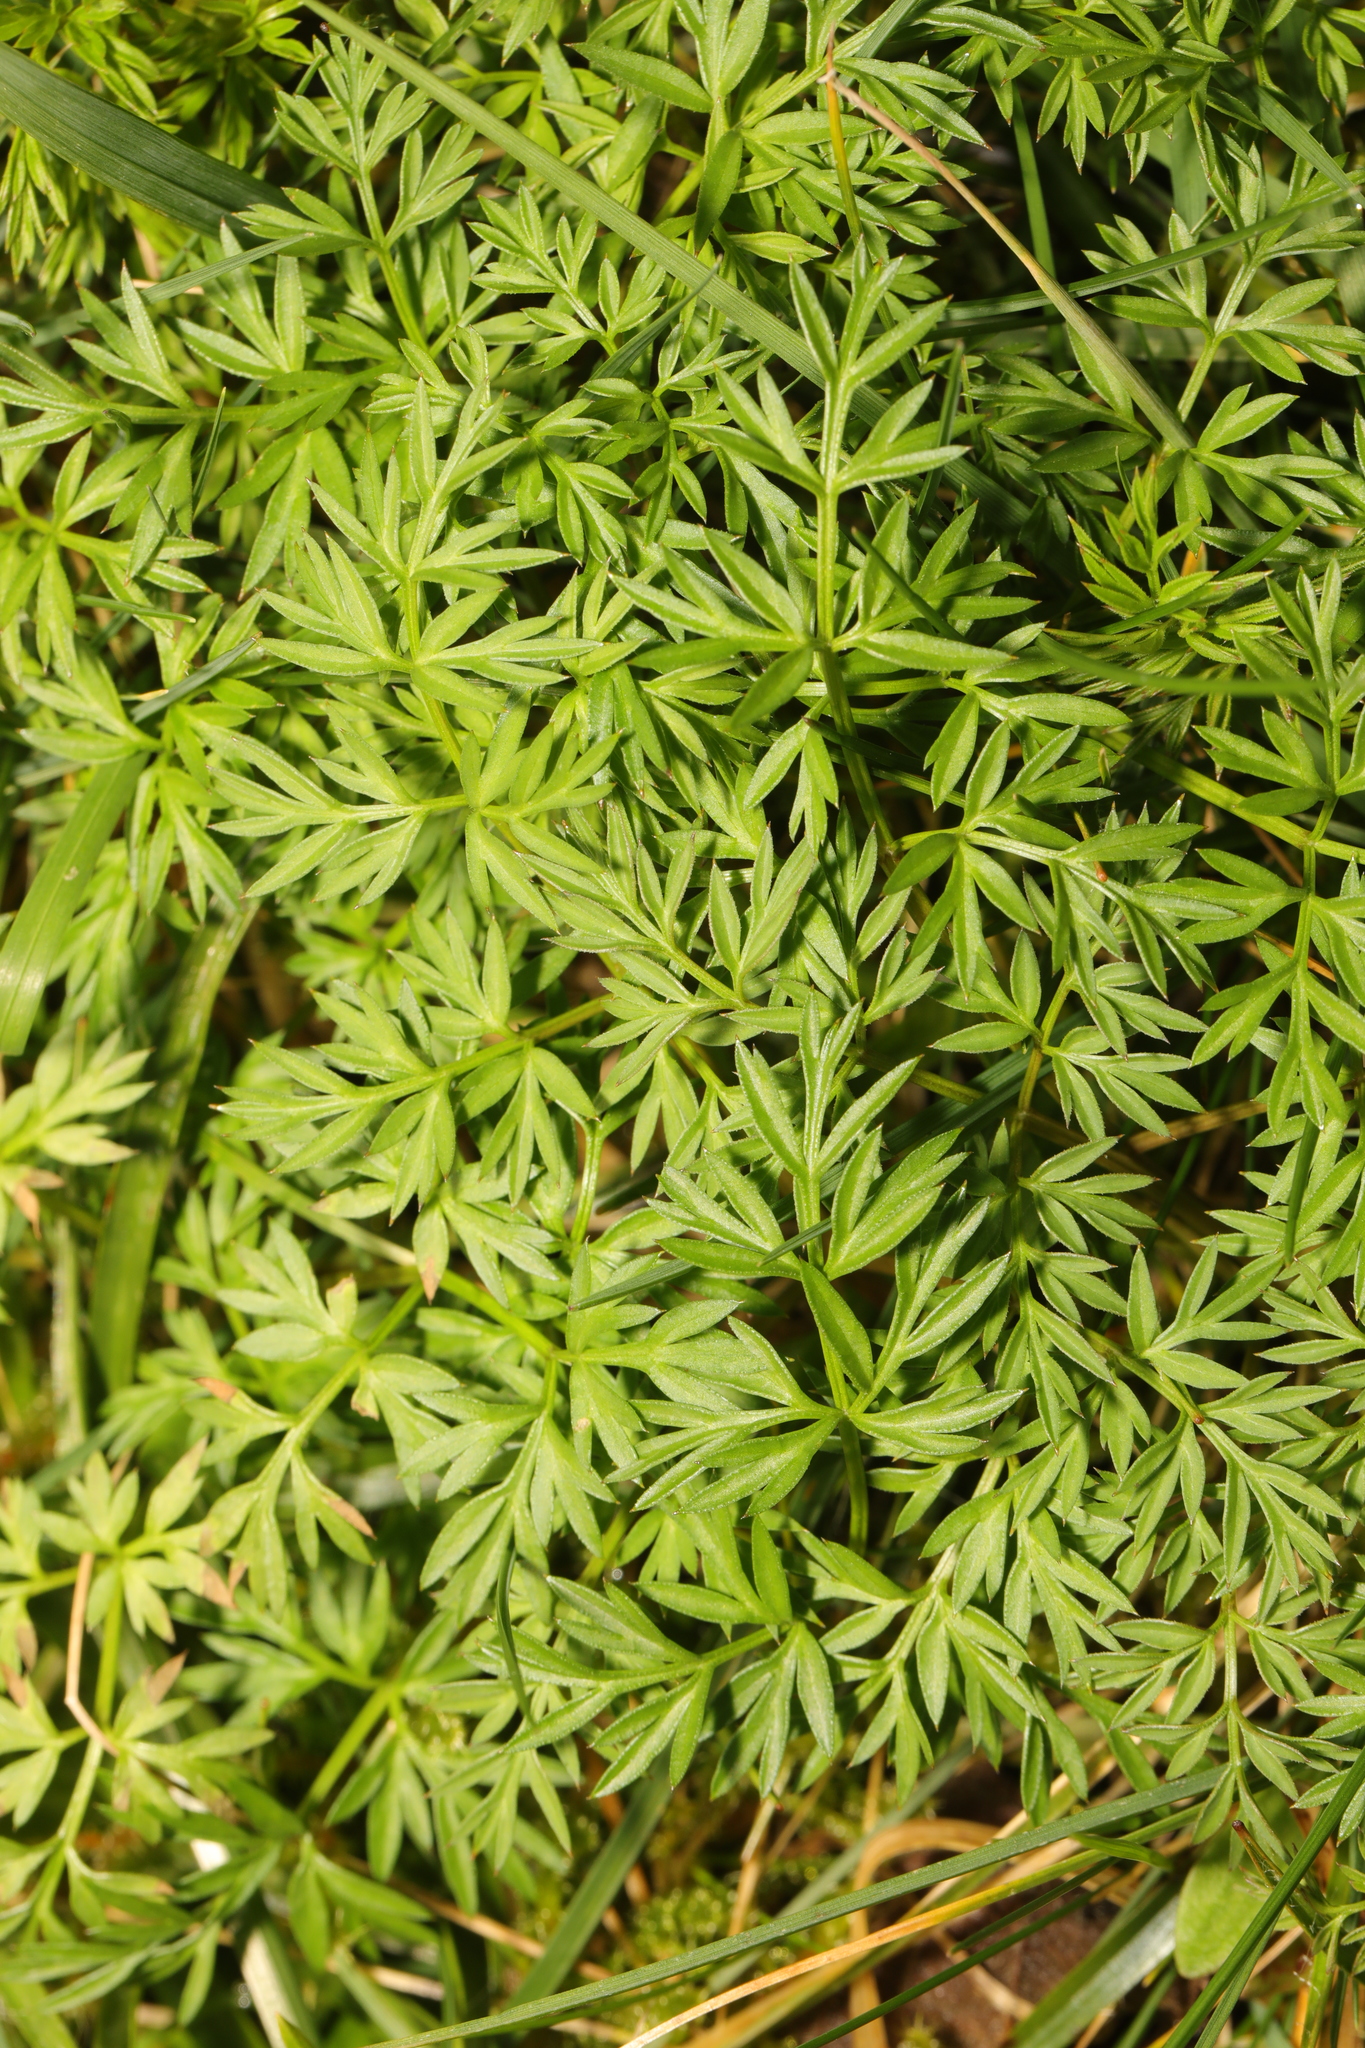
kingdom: Plantae
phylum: Tracheophyta
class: Magnoliopsida
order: Apiales
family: Apiaceae
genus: Conopodium
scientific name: Conopodium majus
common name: Pignut
